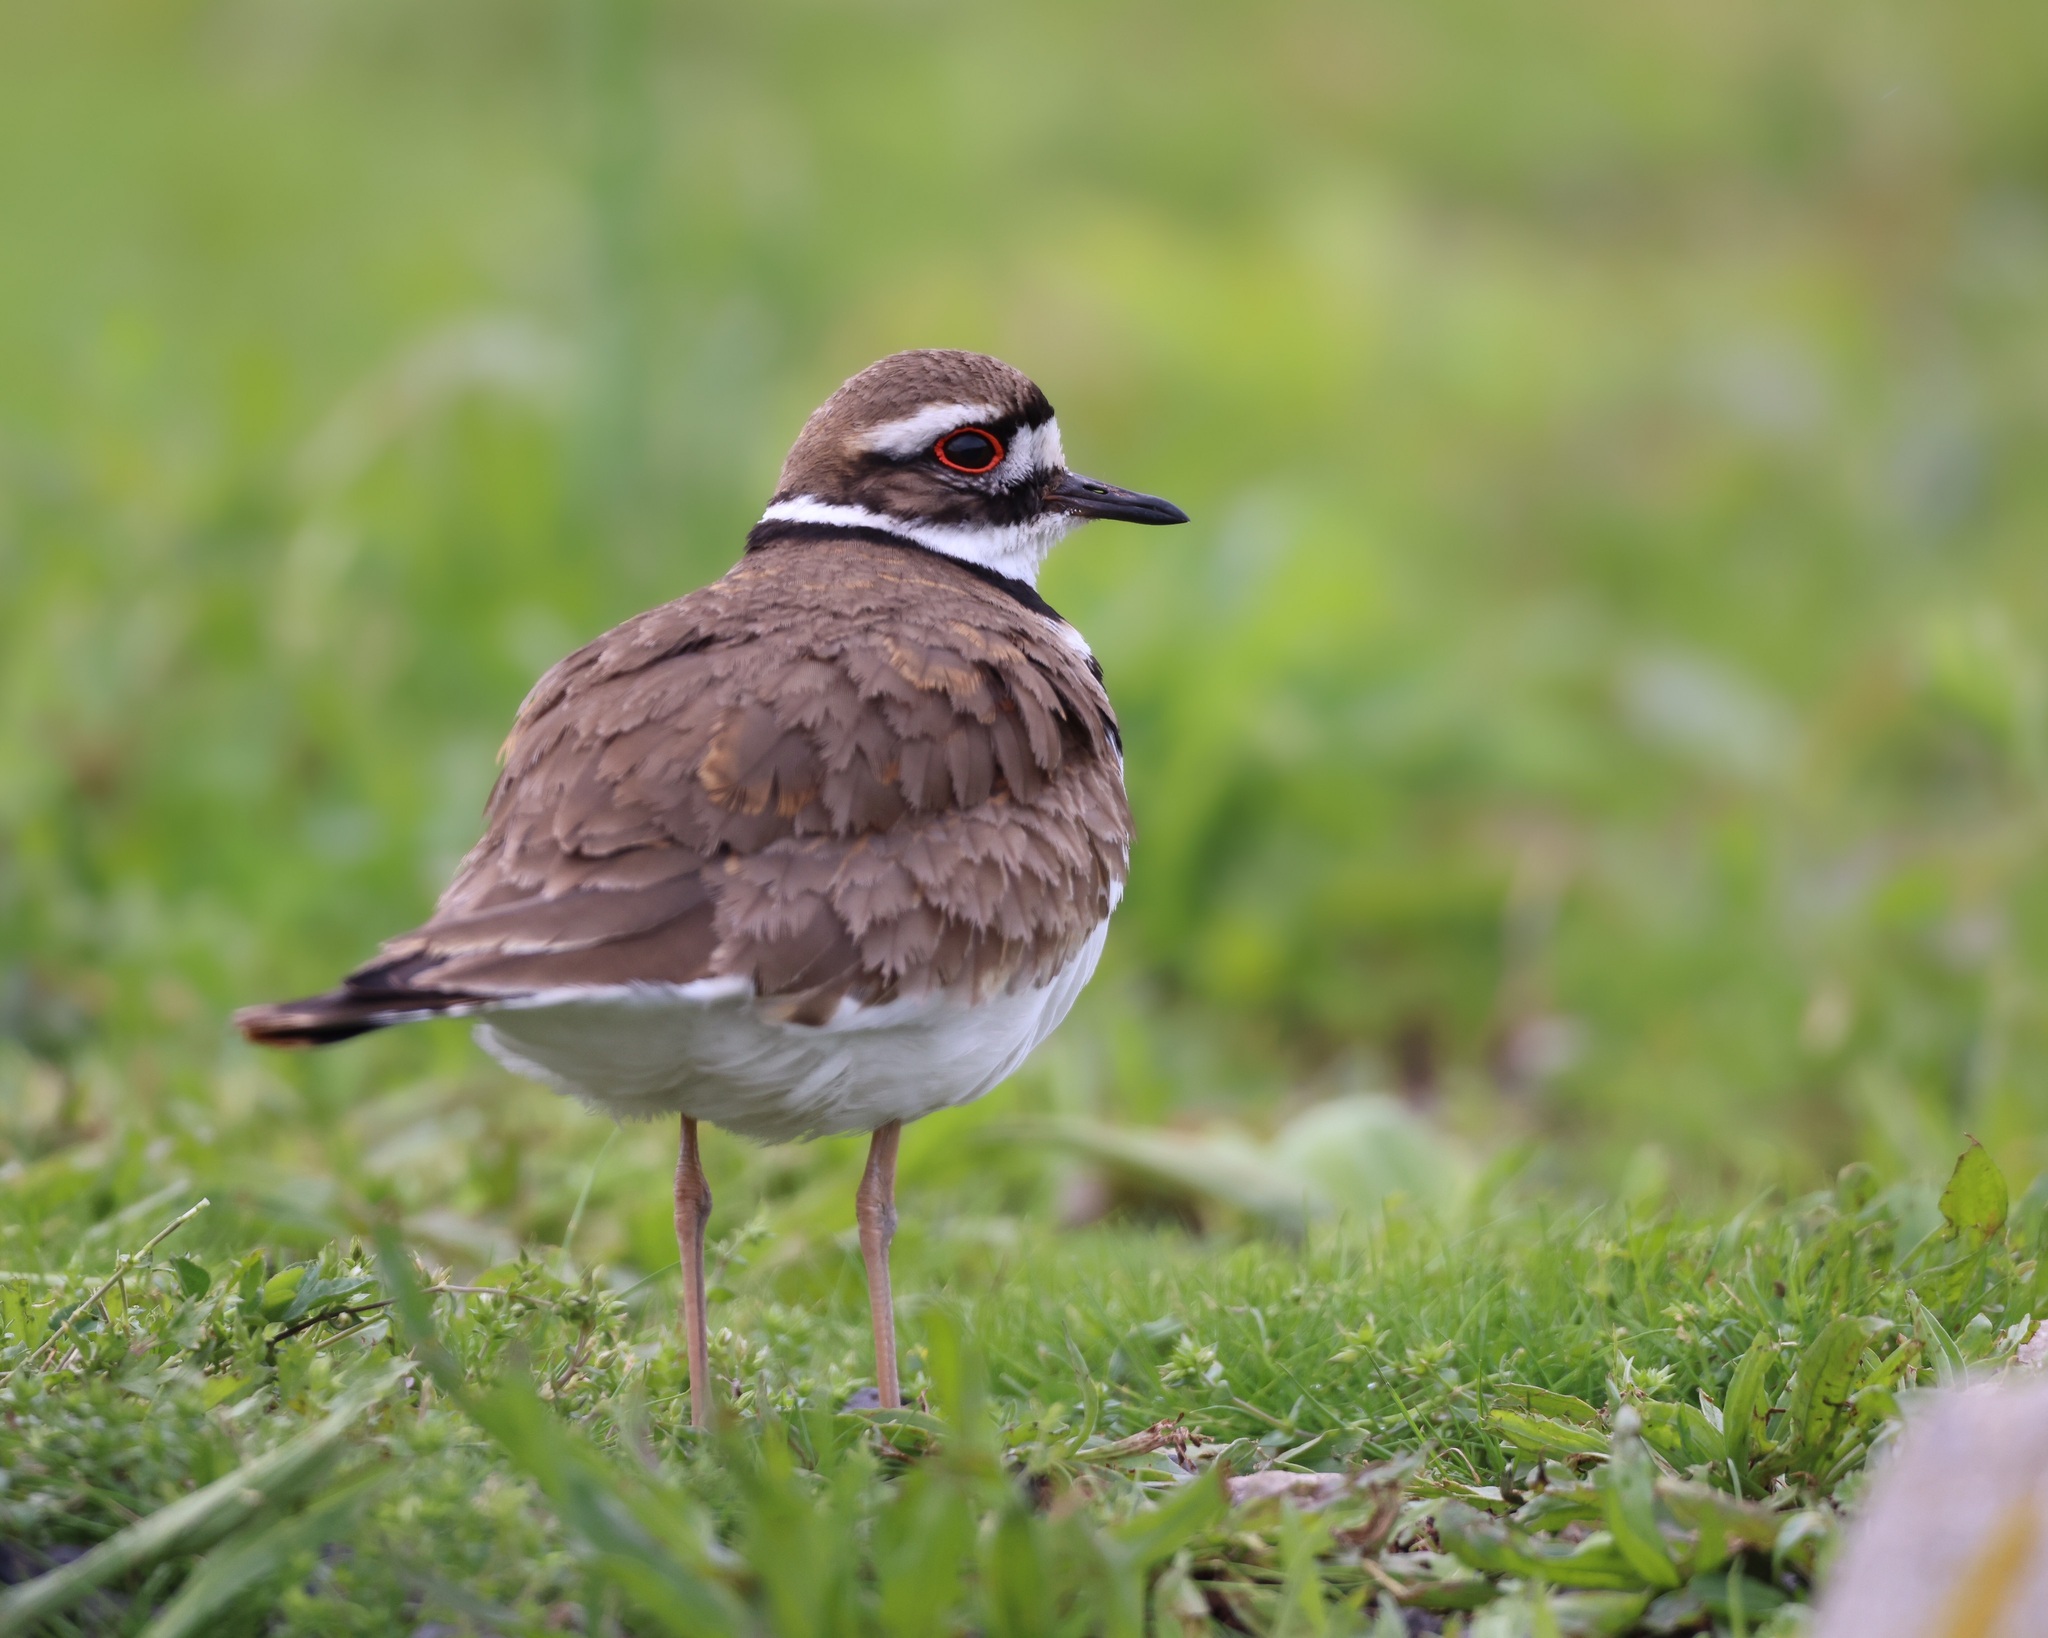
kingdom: Animalia
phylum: Chordata
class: Aves
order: Charadriiformes
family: Charadriidae
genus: Charadrius
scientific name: Charadrius vociferus
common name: Killdeer
